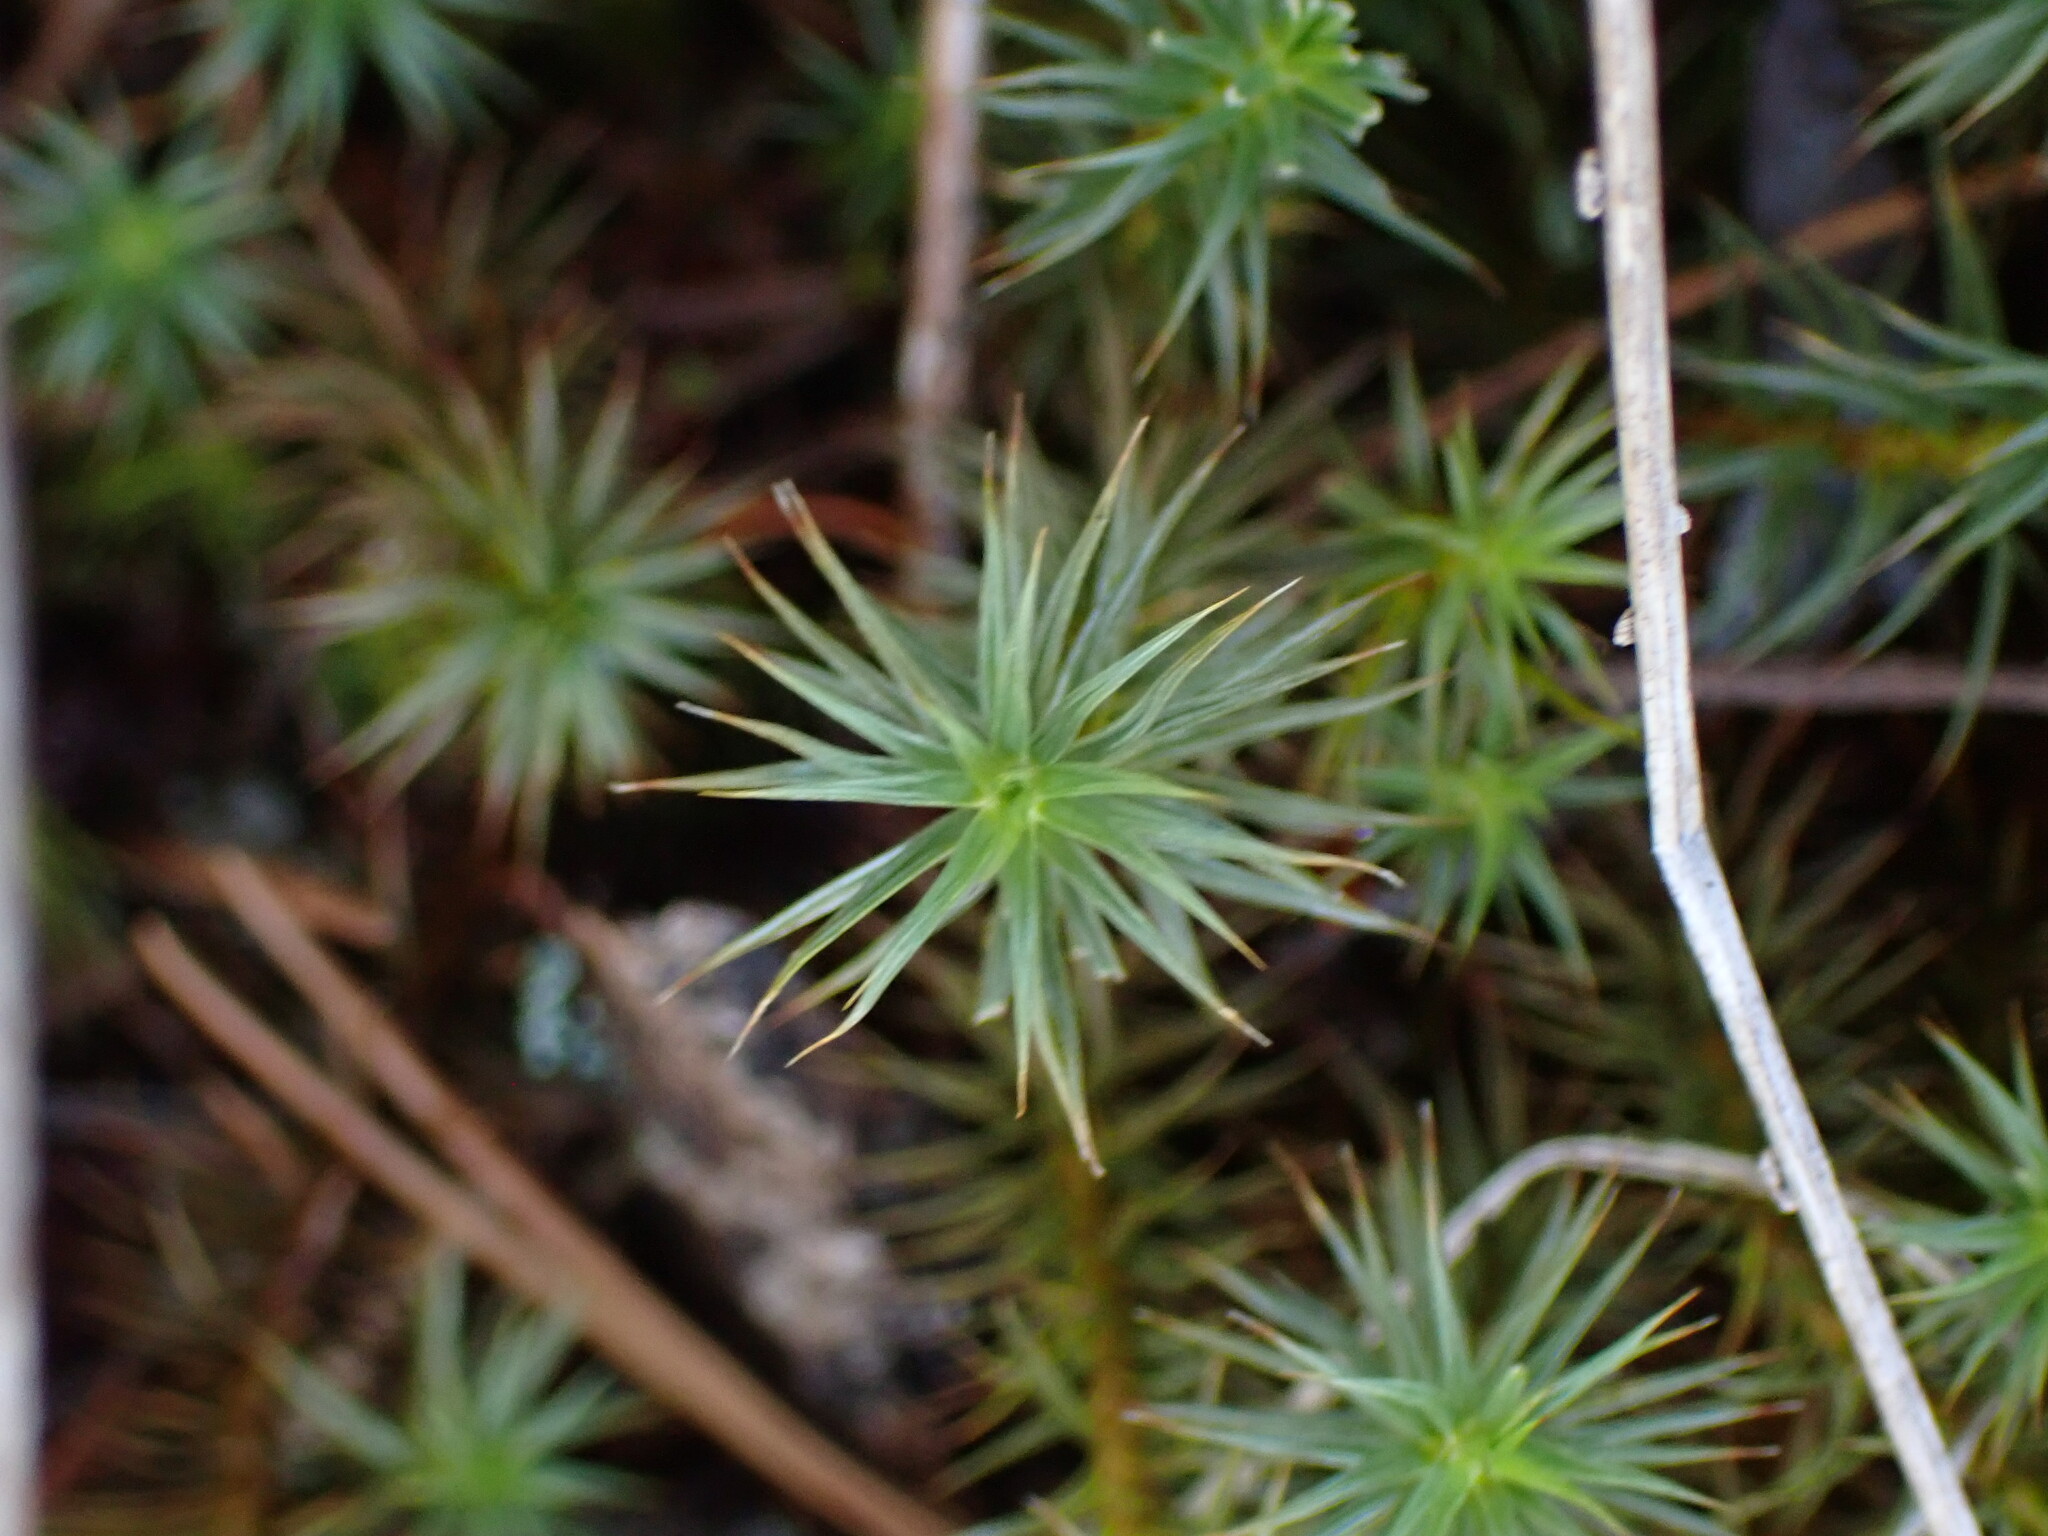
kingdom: Plantae
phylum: Bryophyta
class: Polytrichopsida
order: Polytrichales
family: Polytrichaceae
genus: Polytrichum
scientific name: Polytrichum juniperinum
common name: Juniper haircap moss
